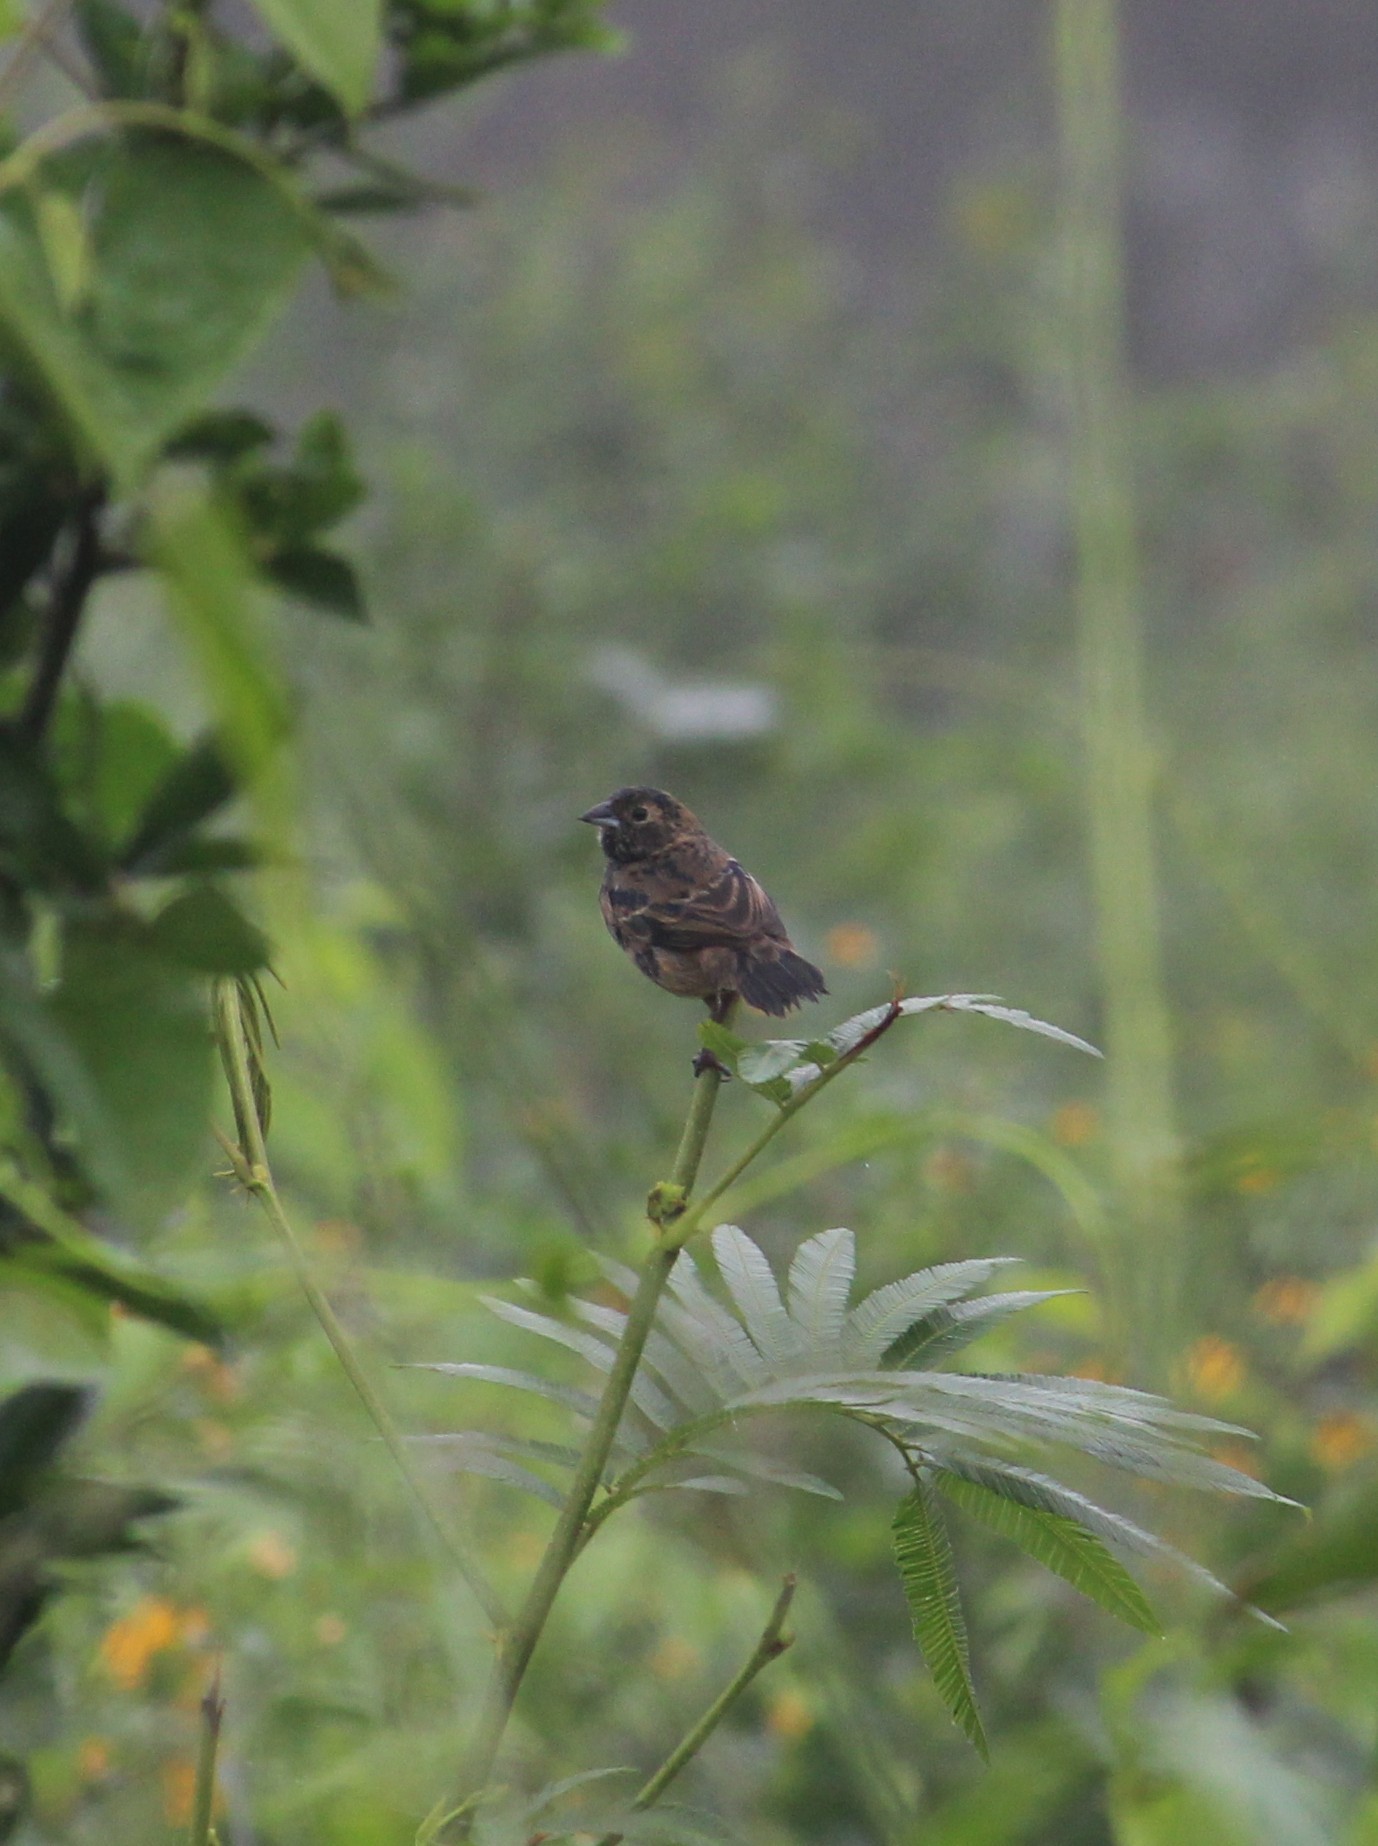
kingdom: Animalia
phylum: Chordata
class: Aves
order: Passeriformes
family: Thraupidae
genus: Volatinia
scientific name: Volatinia jacarina
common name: Blue-black grassquit
